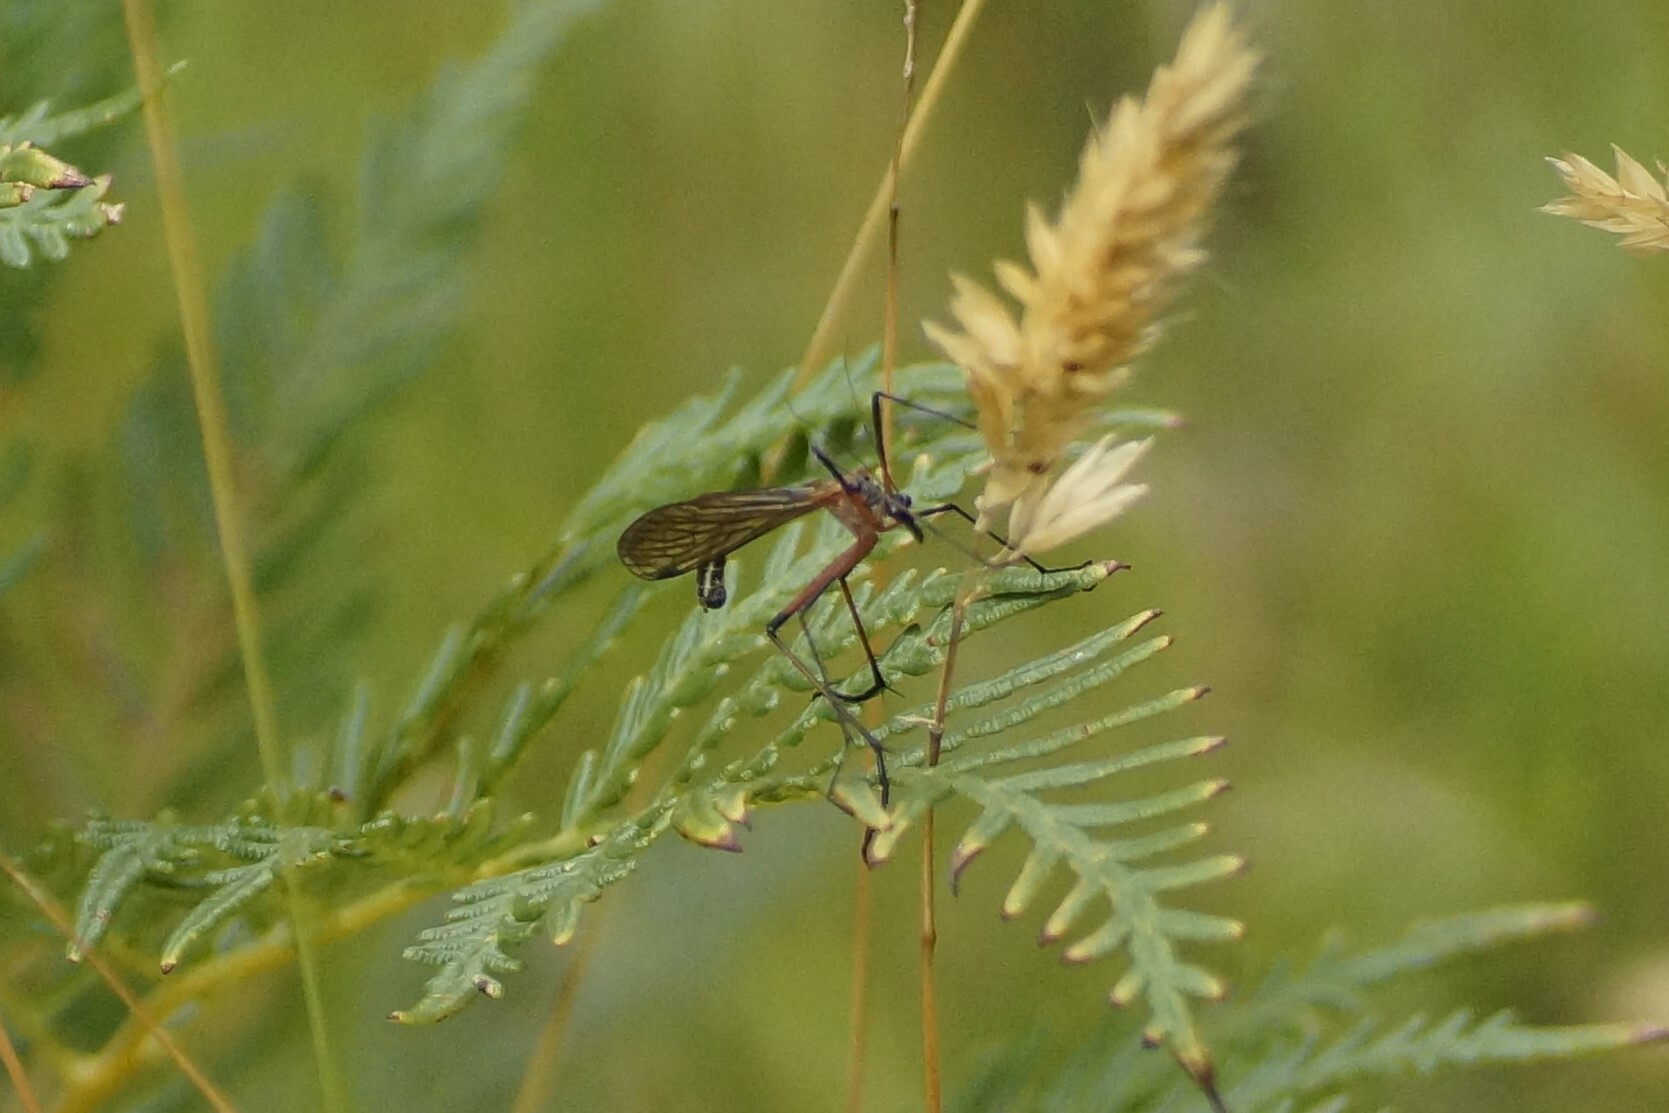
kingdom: Animalia
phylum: Arthropoda
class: Insecta
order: Mecoptera
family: Bittacidae
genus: Harpobittacus
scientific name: Harpobittacus nigriceps
